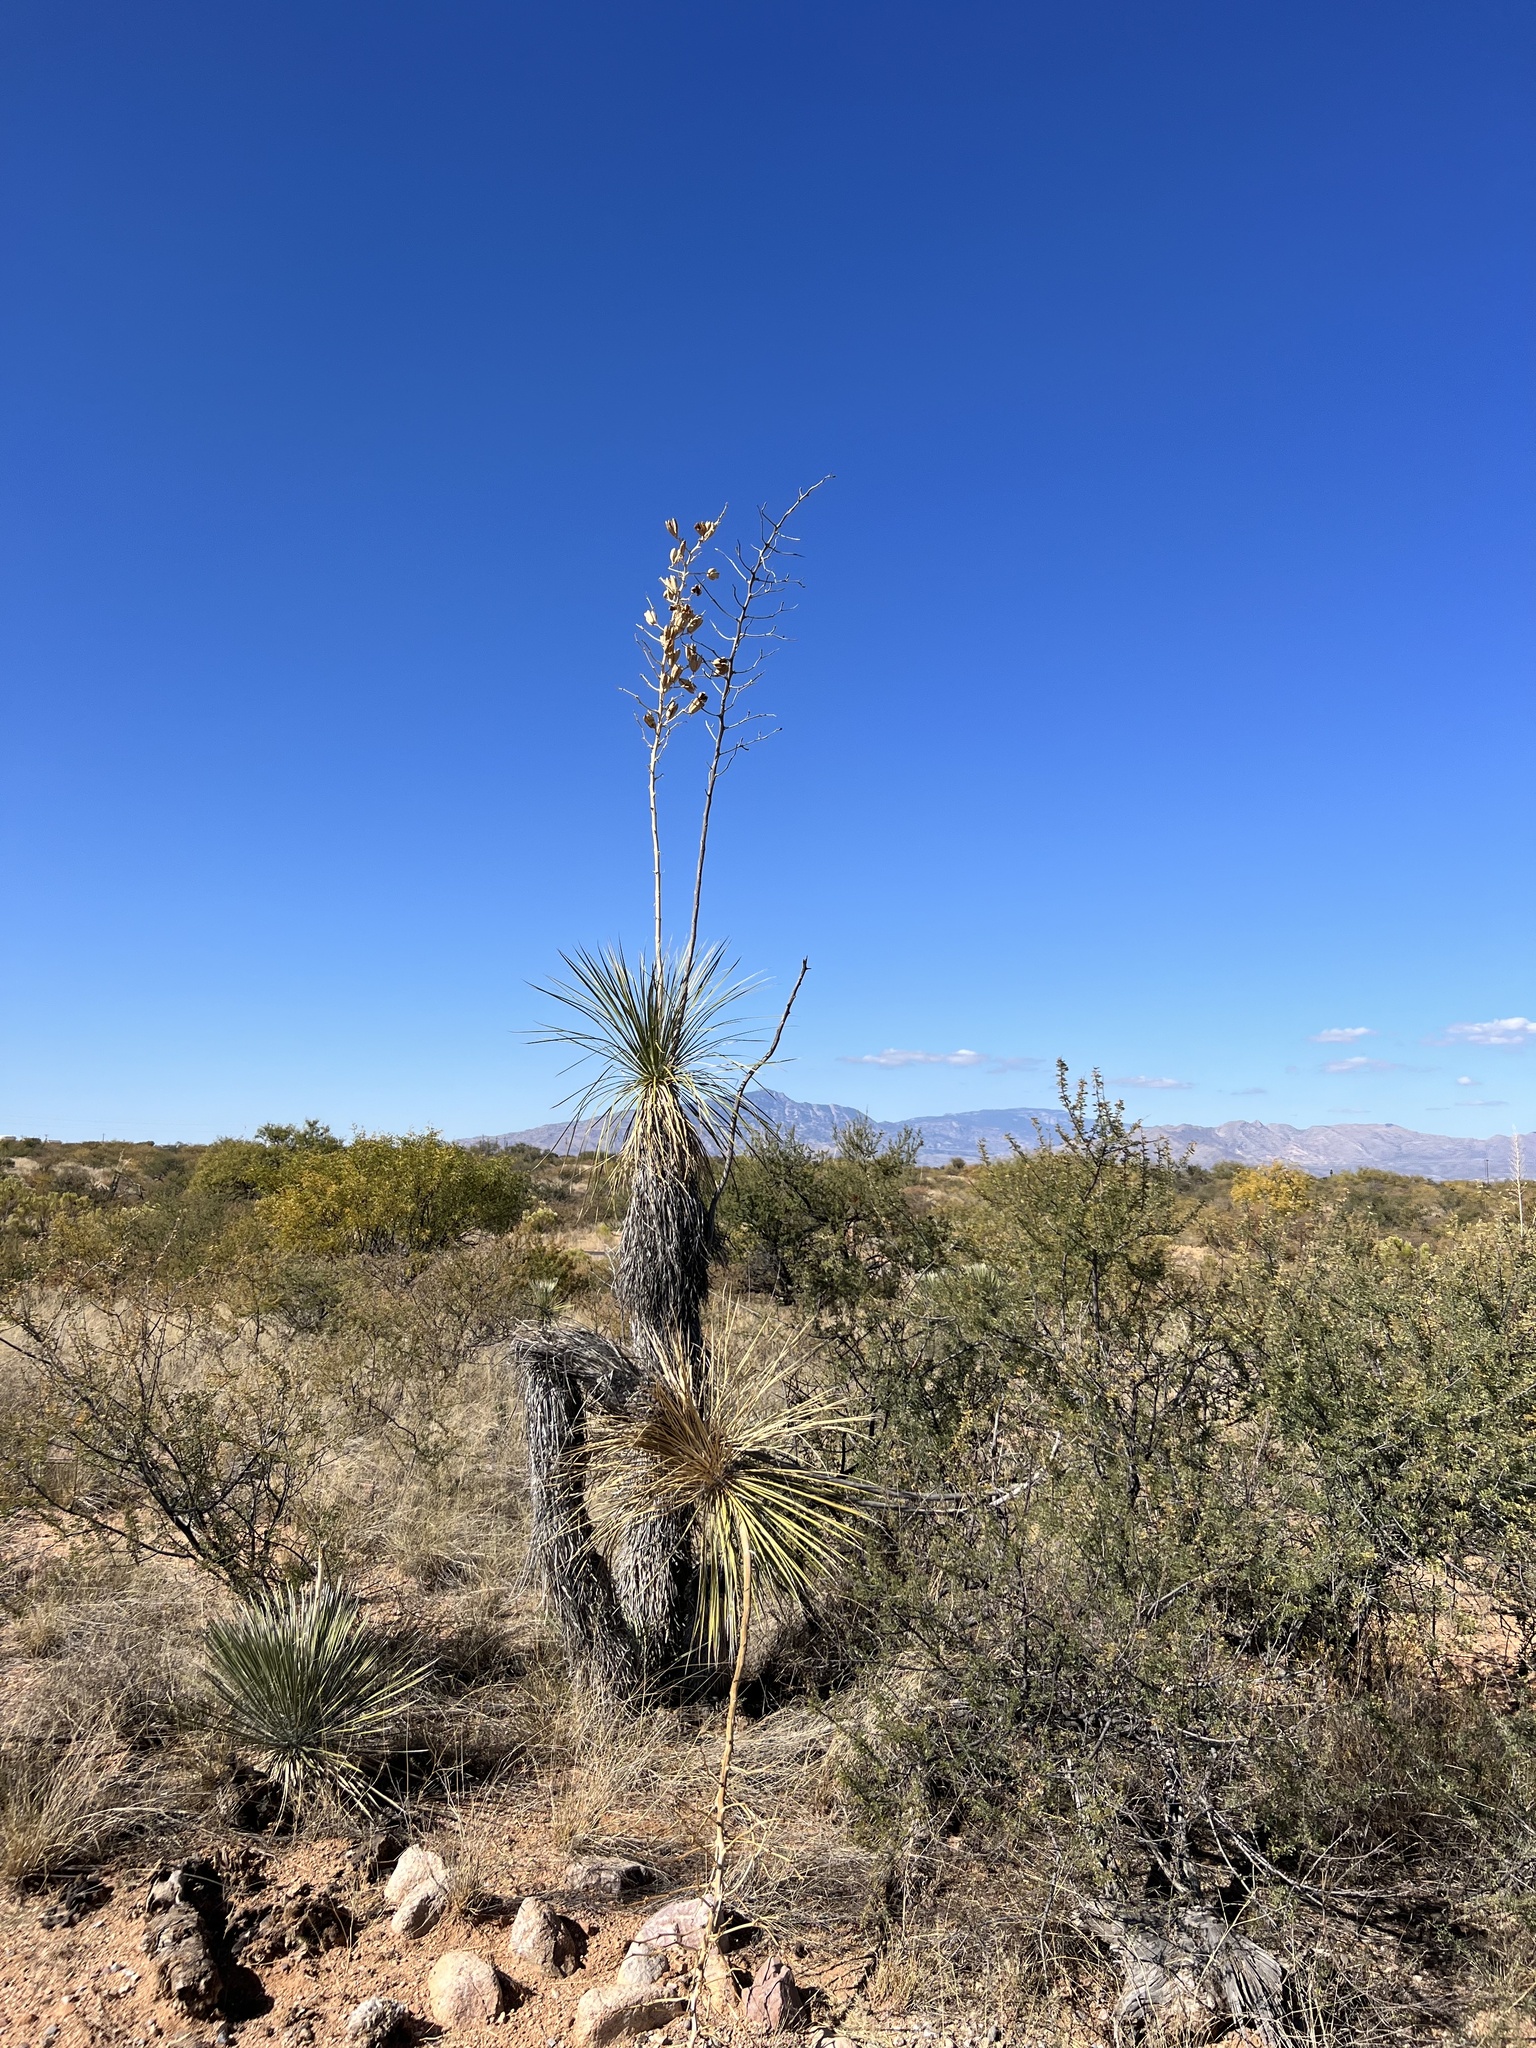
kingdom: Plantae
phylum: Tracheophyta
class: Liliopsida
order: Asparagales
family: Asparagaceae
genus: Yucca
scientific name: Yucca elata
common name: Palmella
